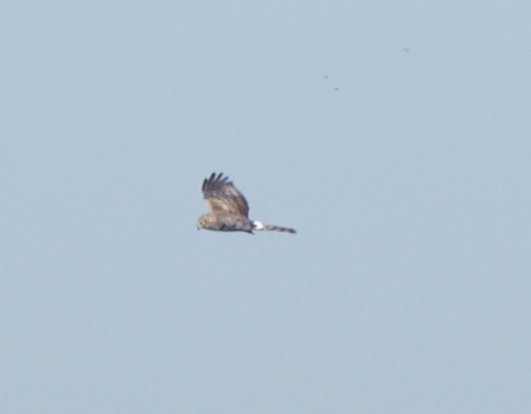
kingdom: Animalia
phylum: Chordata
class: Aves
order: Accipitriformes
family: Accipitridae
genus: Circus
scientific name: Circus cyaneus
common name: Hen harrier
